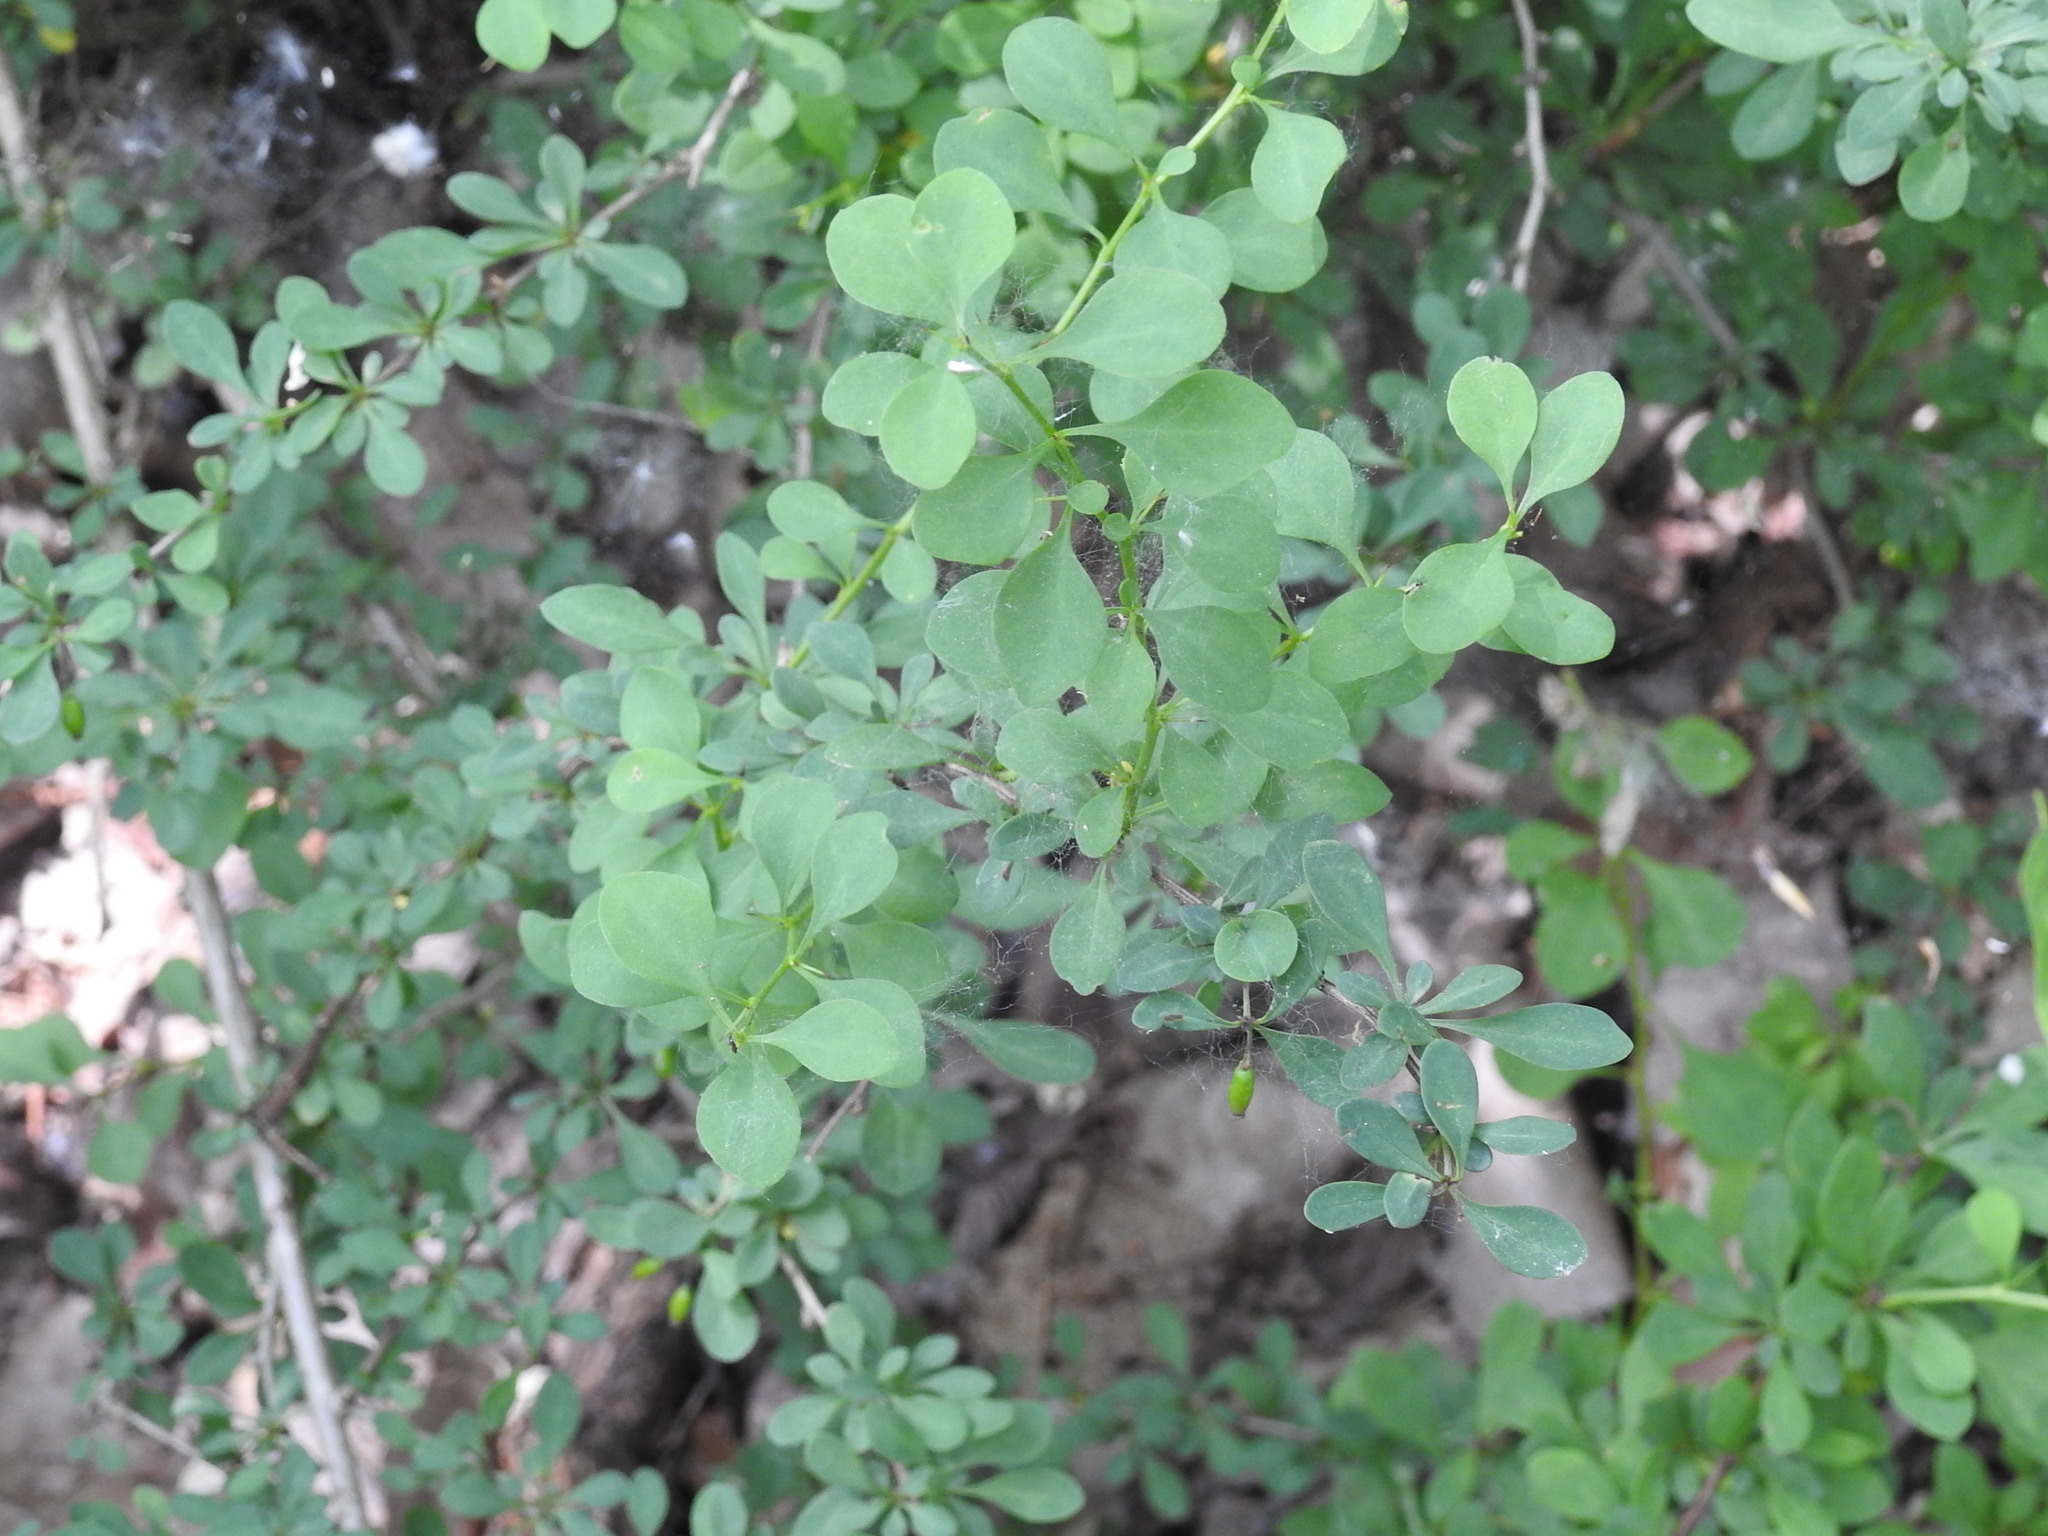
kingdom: Plantae
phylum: Tracheophyta
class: Magnoliopsida
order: Ranunculales
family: Berberidaceae
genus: Berberis
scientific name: Berberis thunbergii
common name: Japanese barberry
